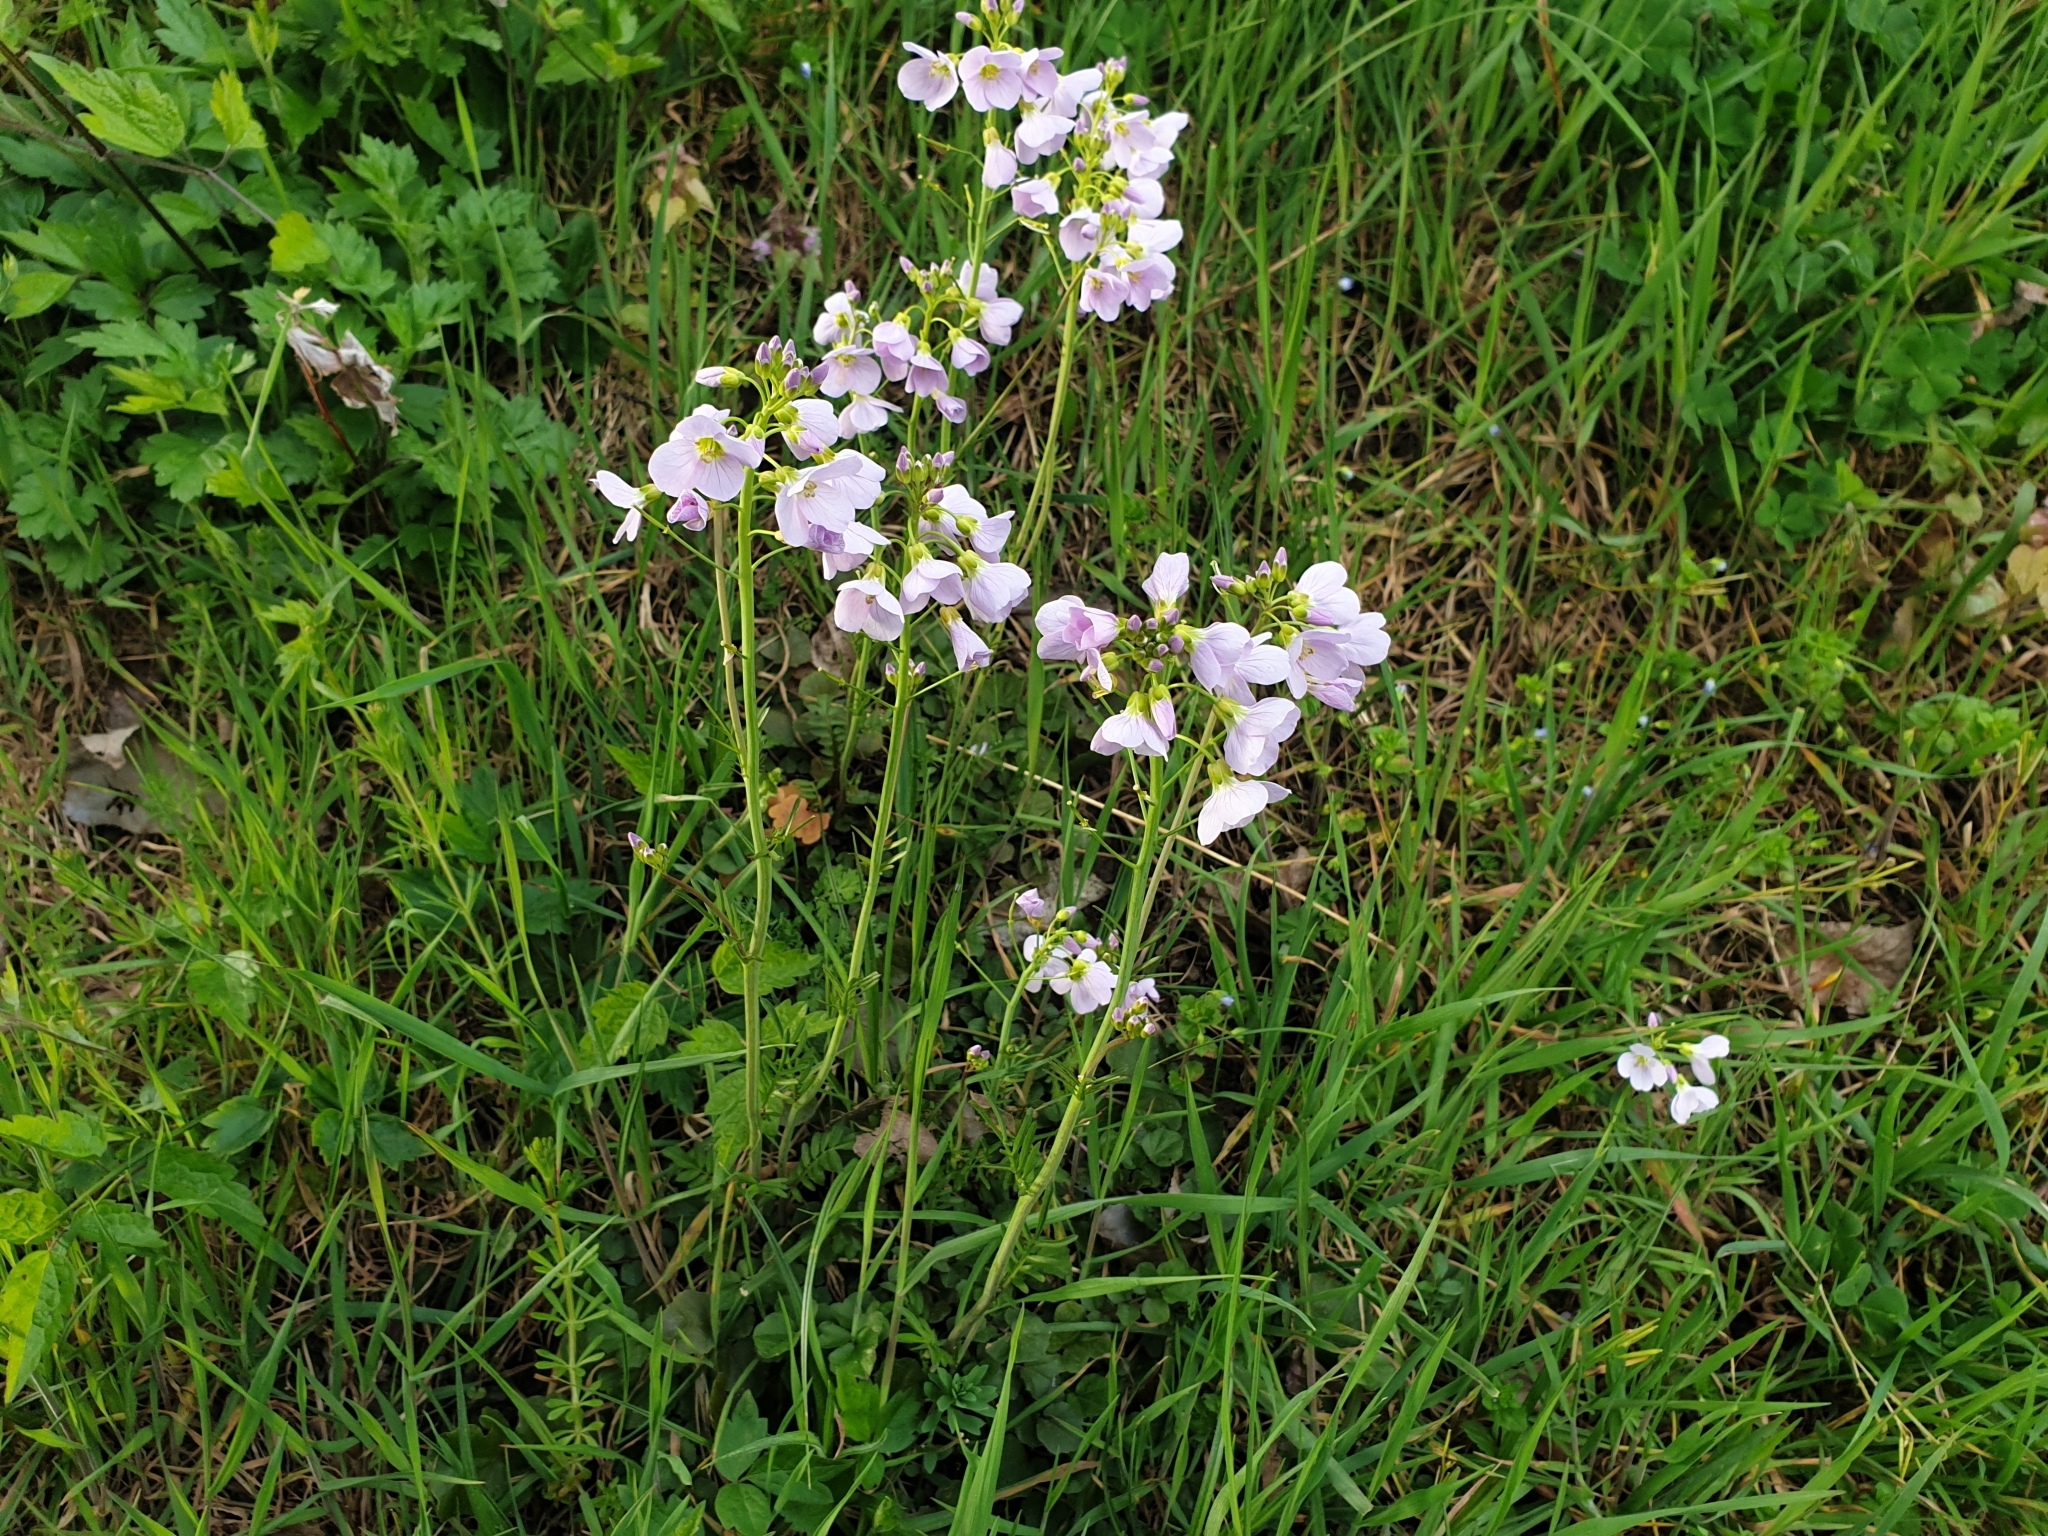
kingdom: Plantae
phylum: Tracheophyta
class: Magnoliopsida
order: Brassicales
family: Brassicaceae
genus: Cardamine
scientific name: Cardamine pratensis
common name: Cuckoo flower
